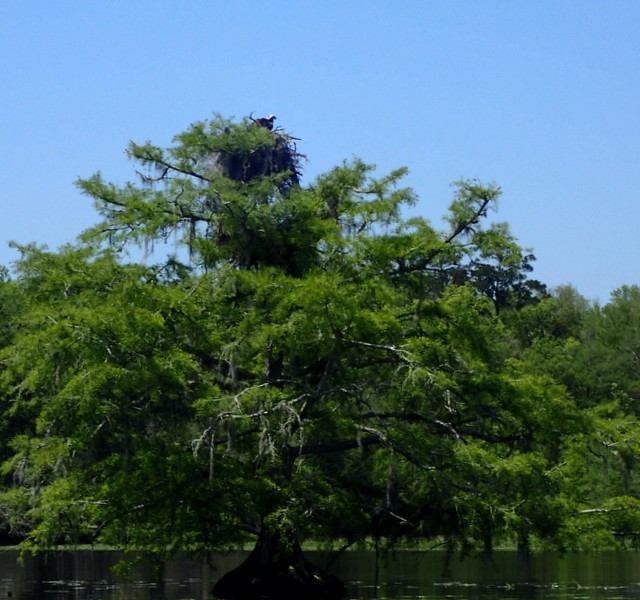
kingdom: Animalia
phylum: Chordata
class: Aves
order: Accipitriformes
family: Pandionidae
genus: Pandion
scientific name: Pandion haliaetus
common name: Osprey
